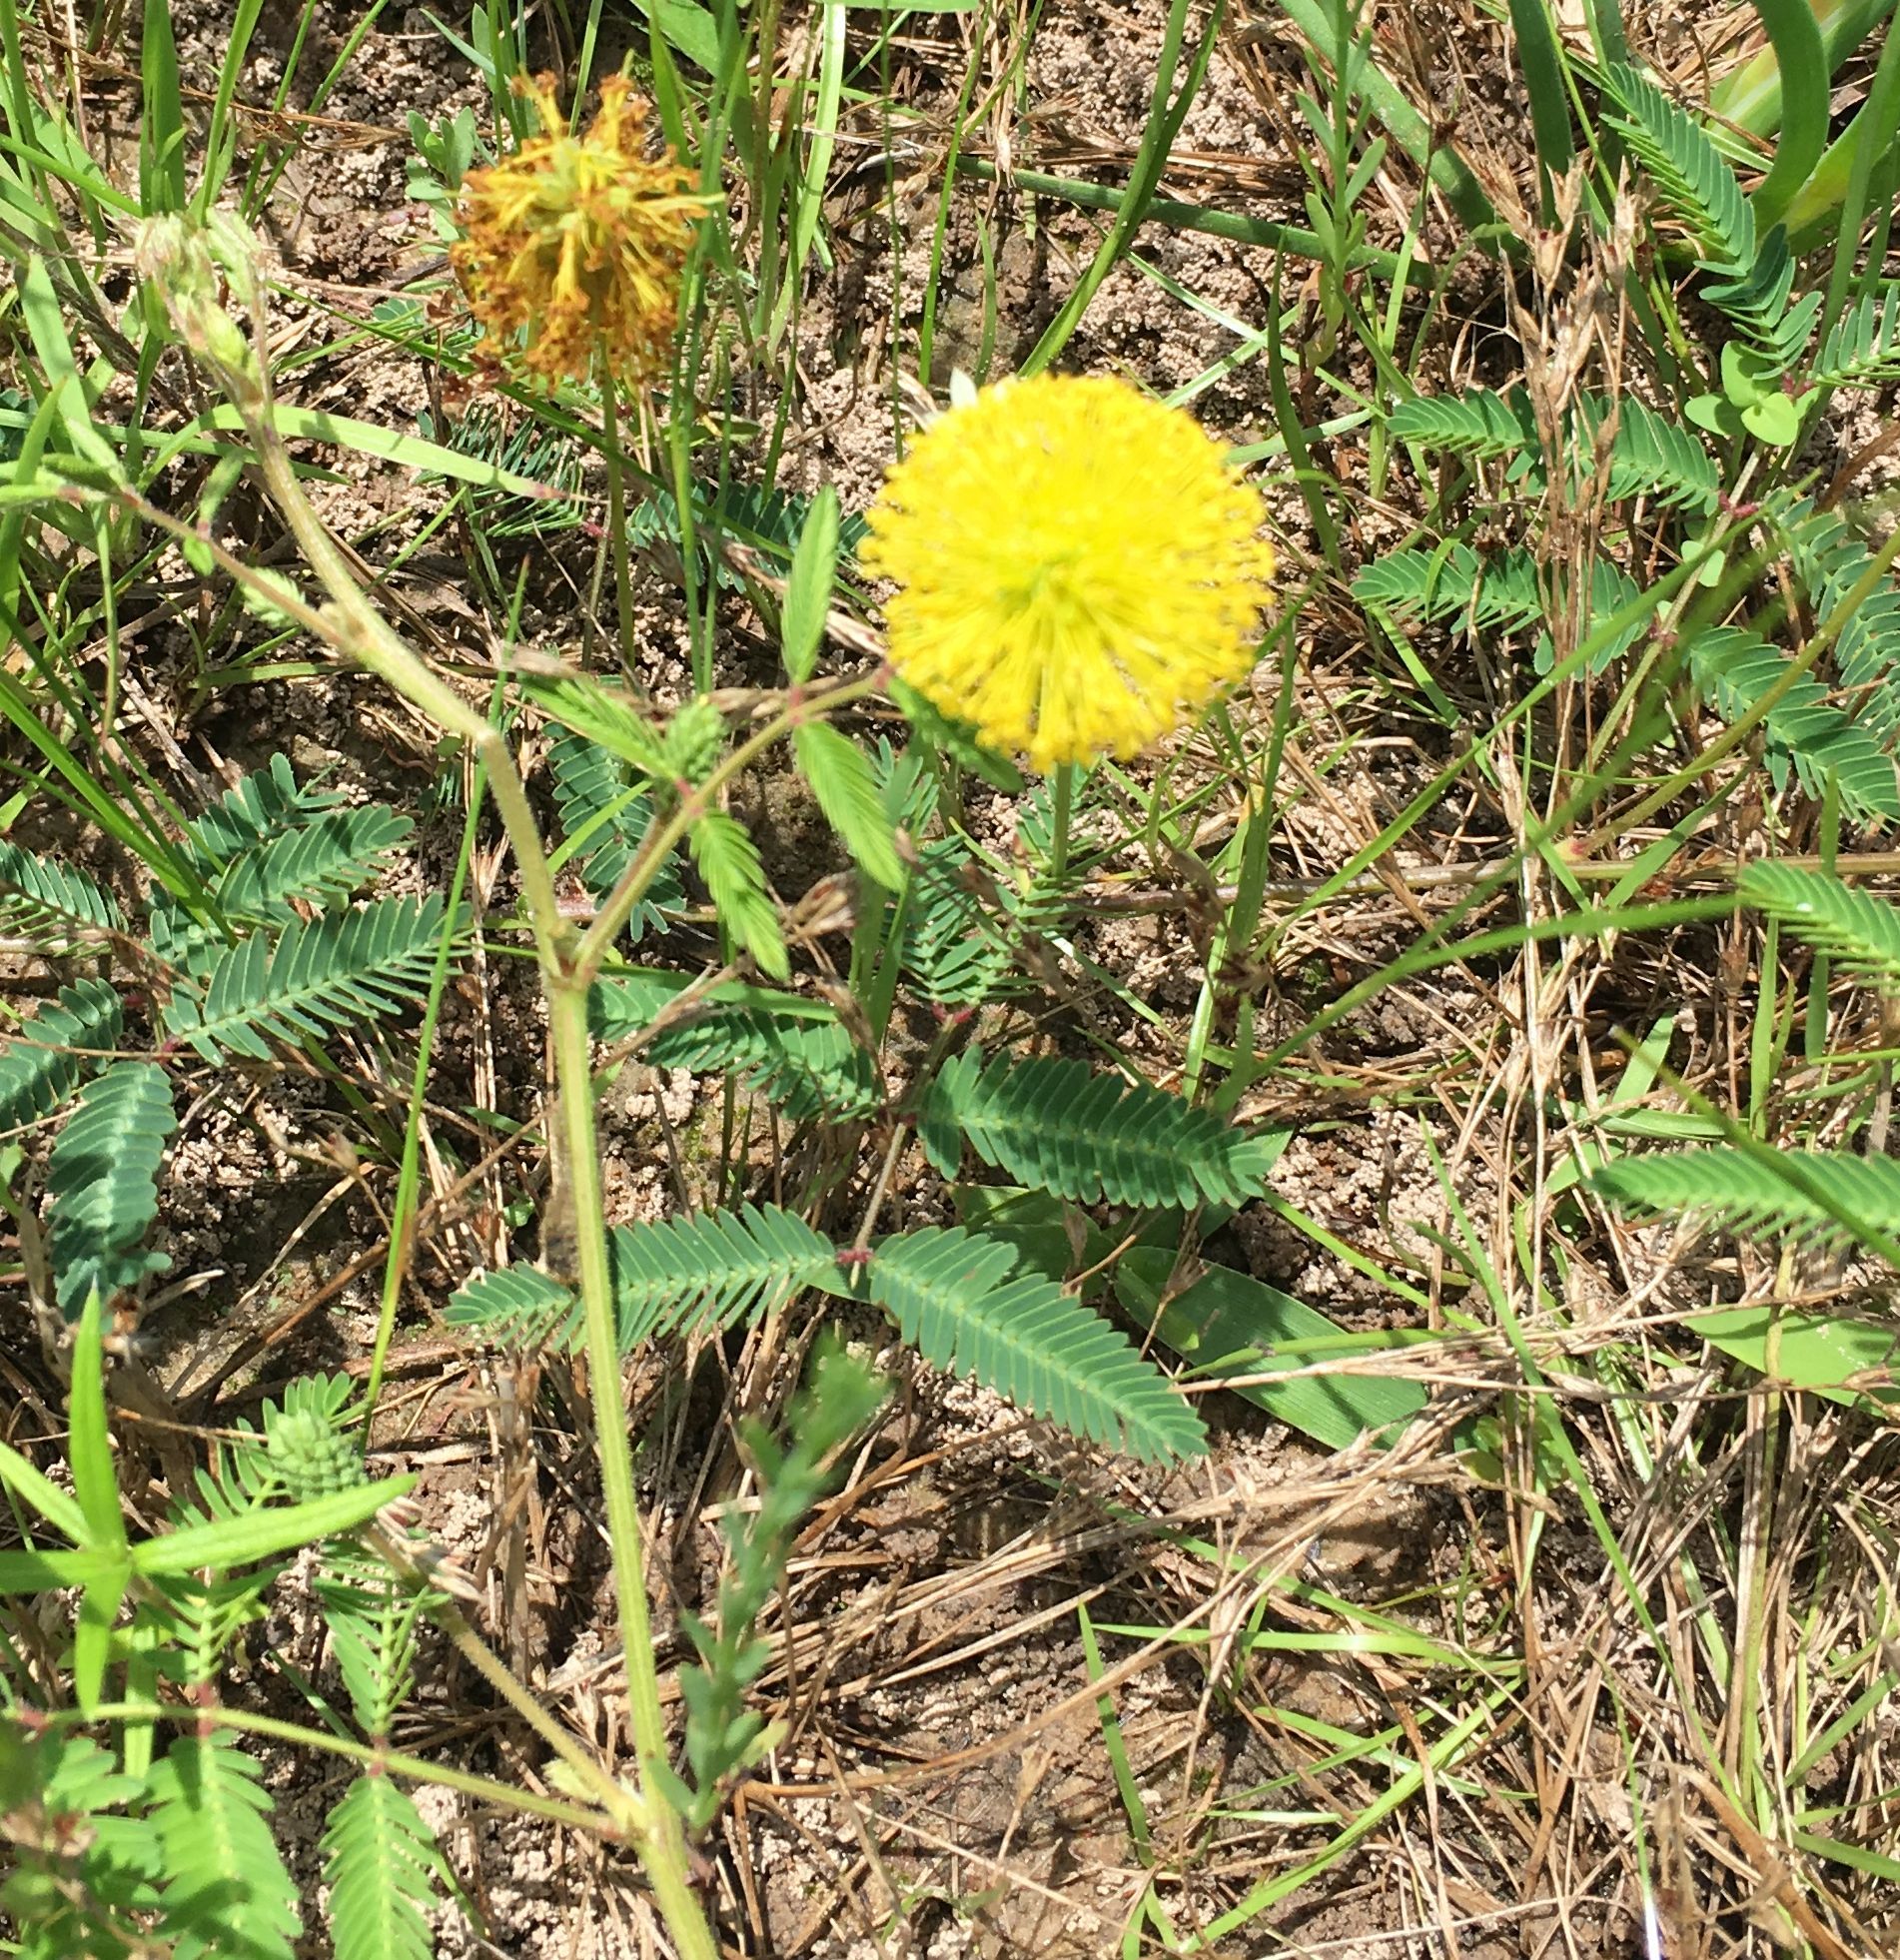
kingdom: Plantae
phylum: Tracheophyta
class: Magnoliopsida
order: Fabales
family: Fabaceae
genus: Neptunia
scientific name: Neptunia lutea
